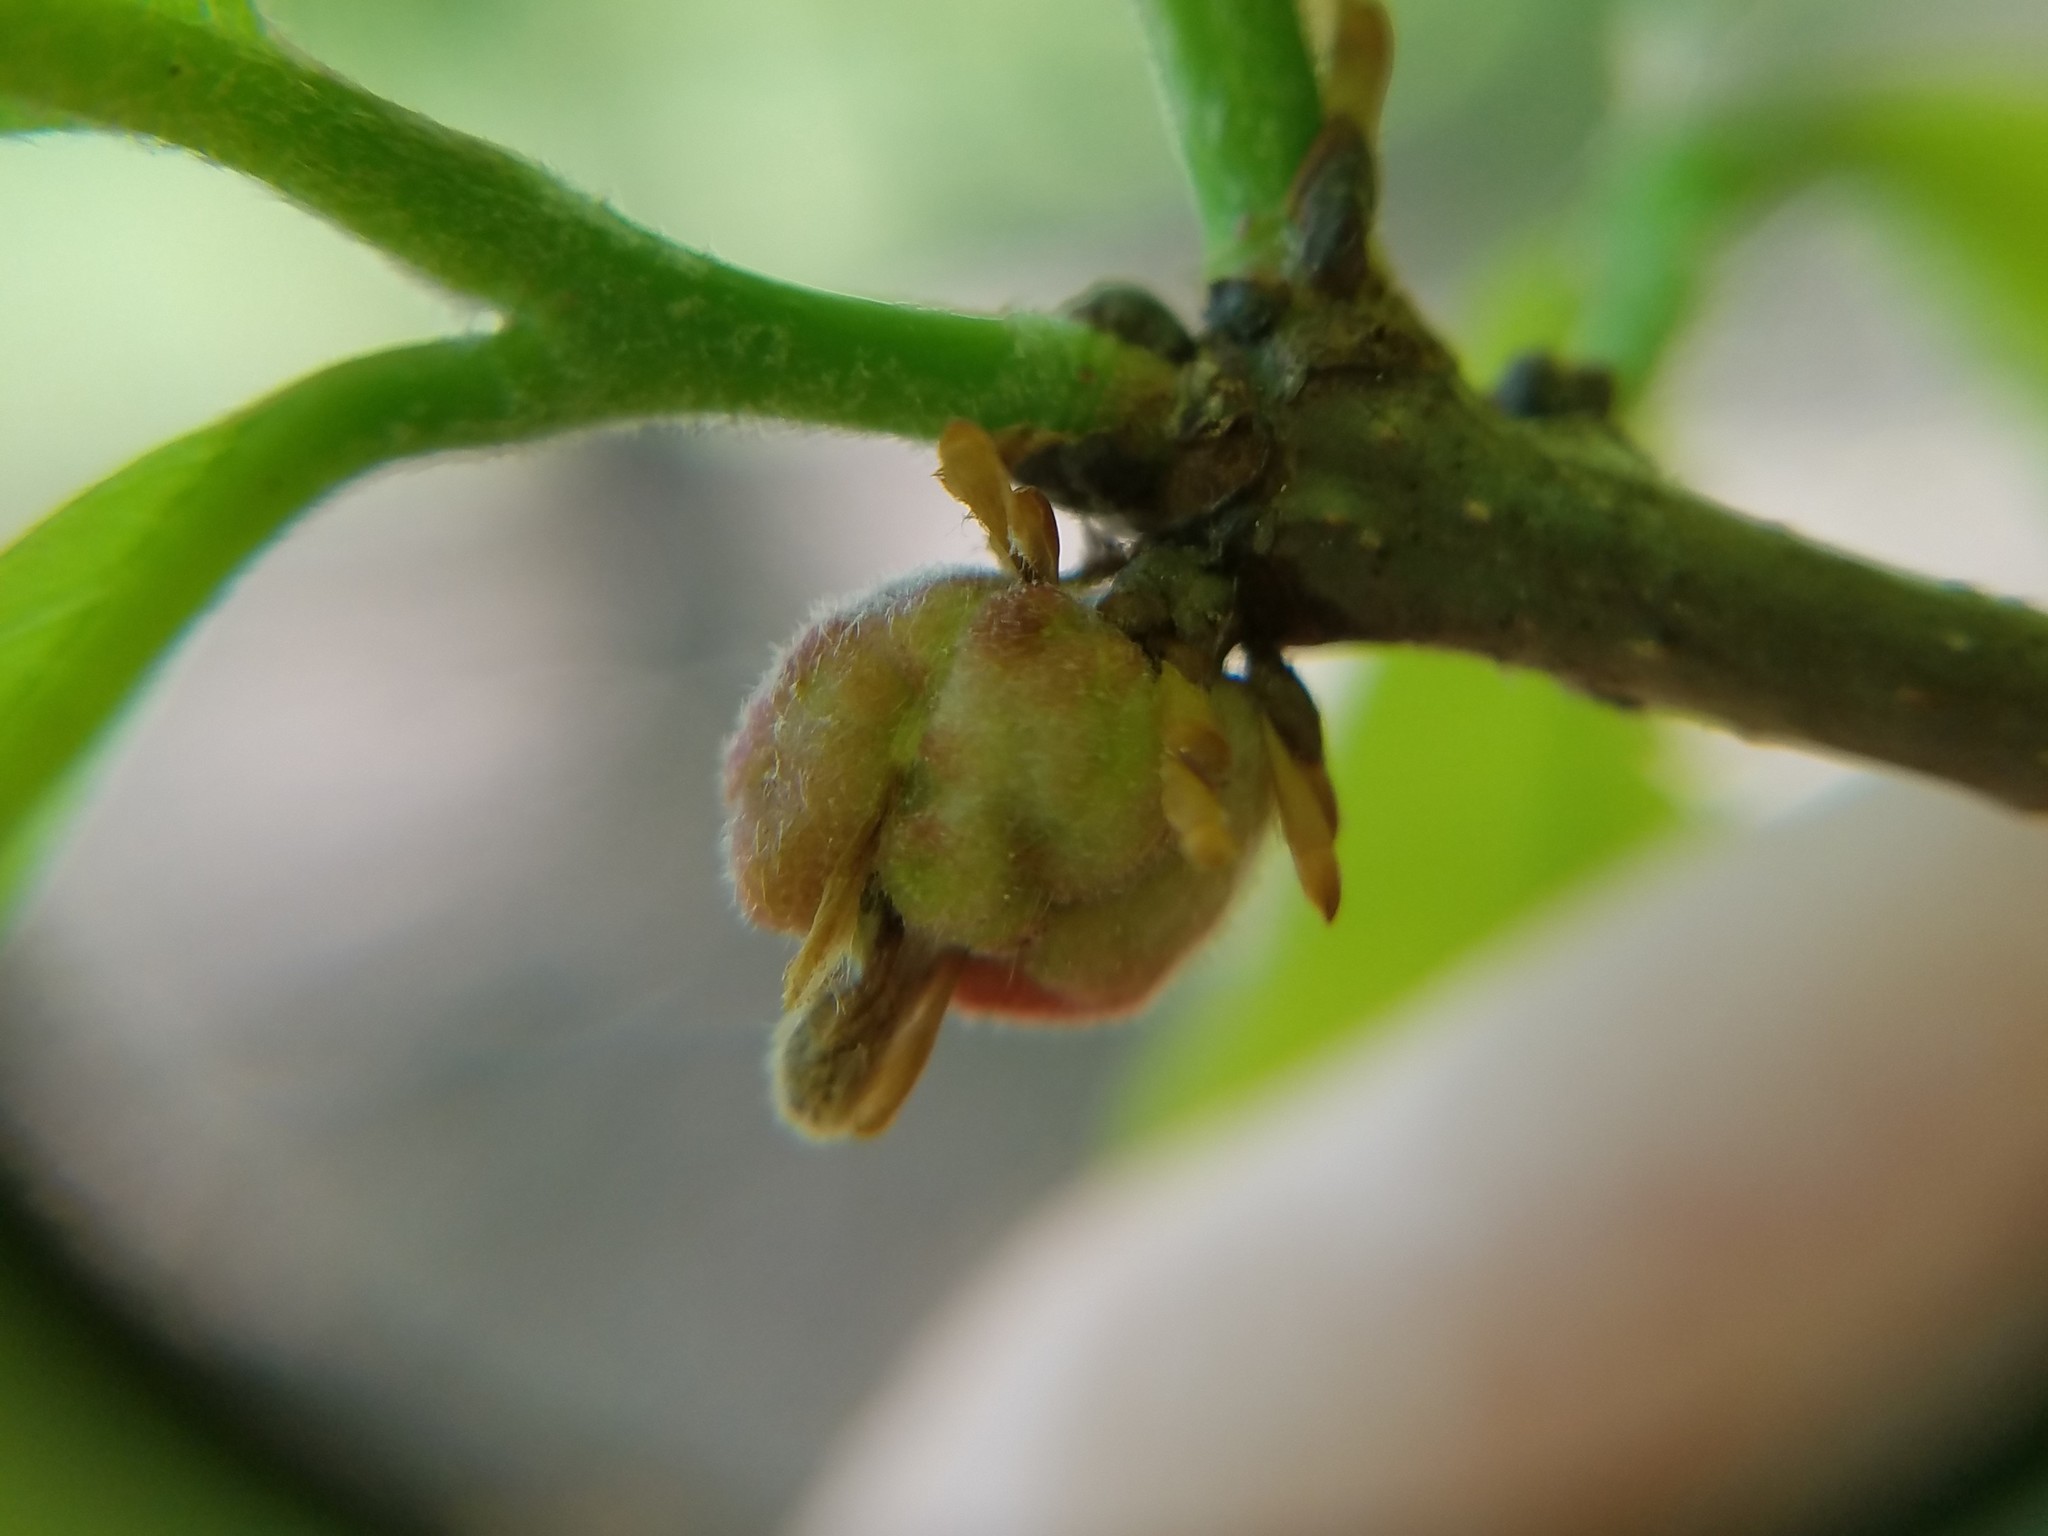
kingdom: Animalia
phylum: Arthropoda
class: Insecta
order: Hymenoptera
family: Cynipidae
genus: Neuroterus
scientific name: Neuroterus minutulus
